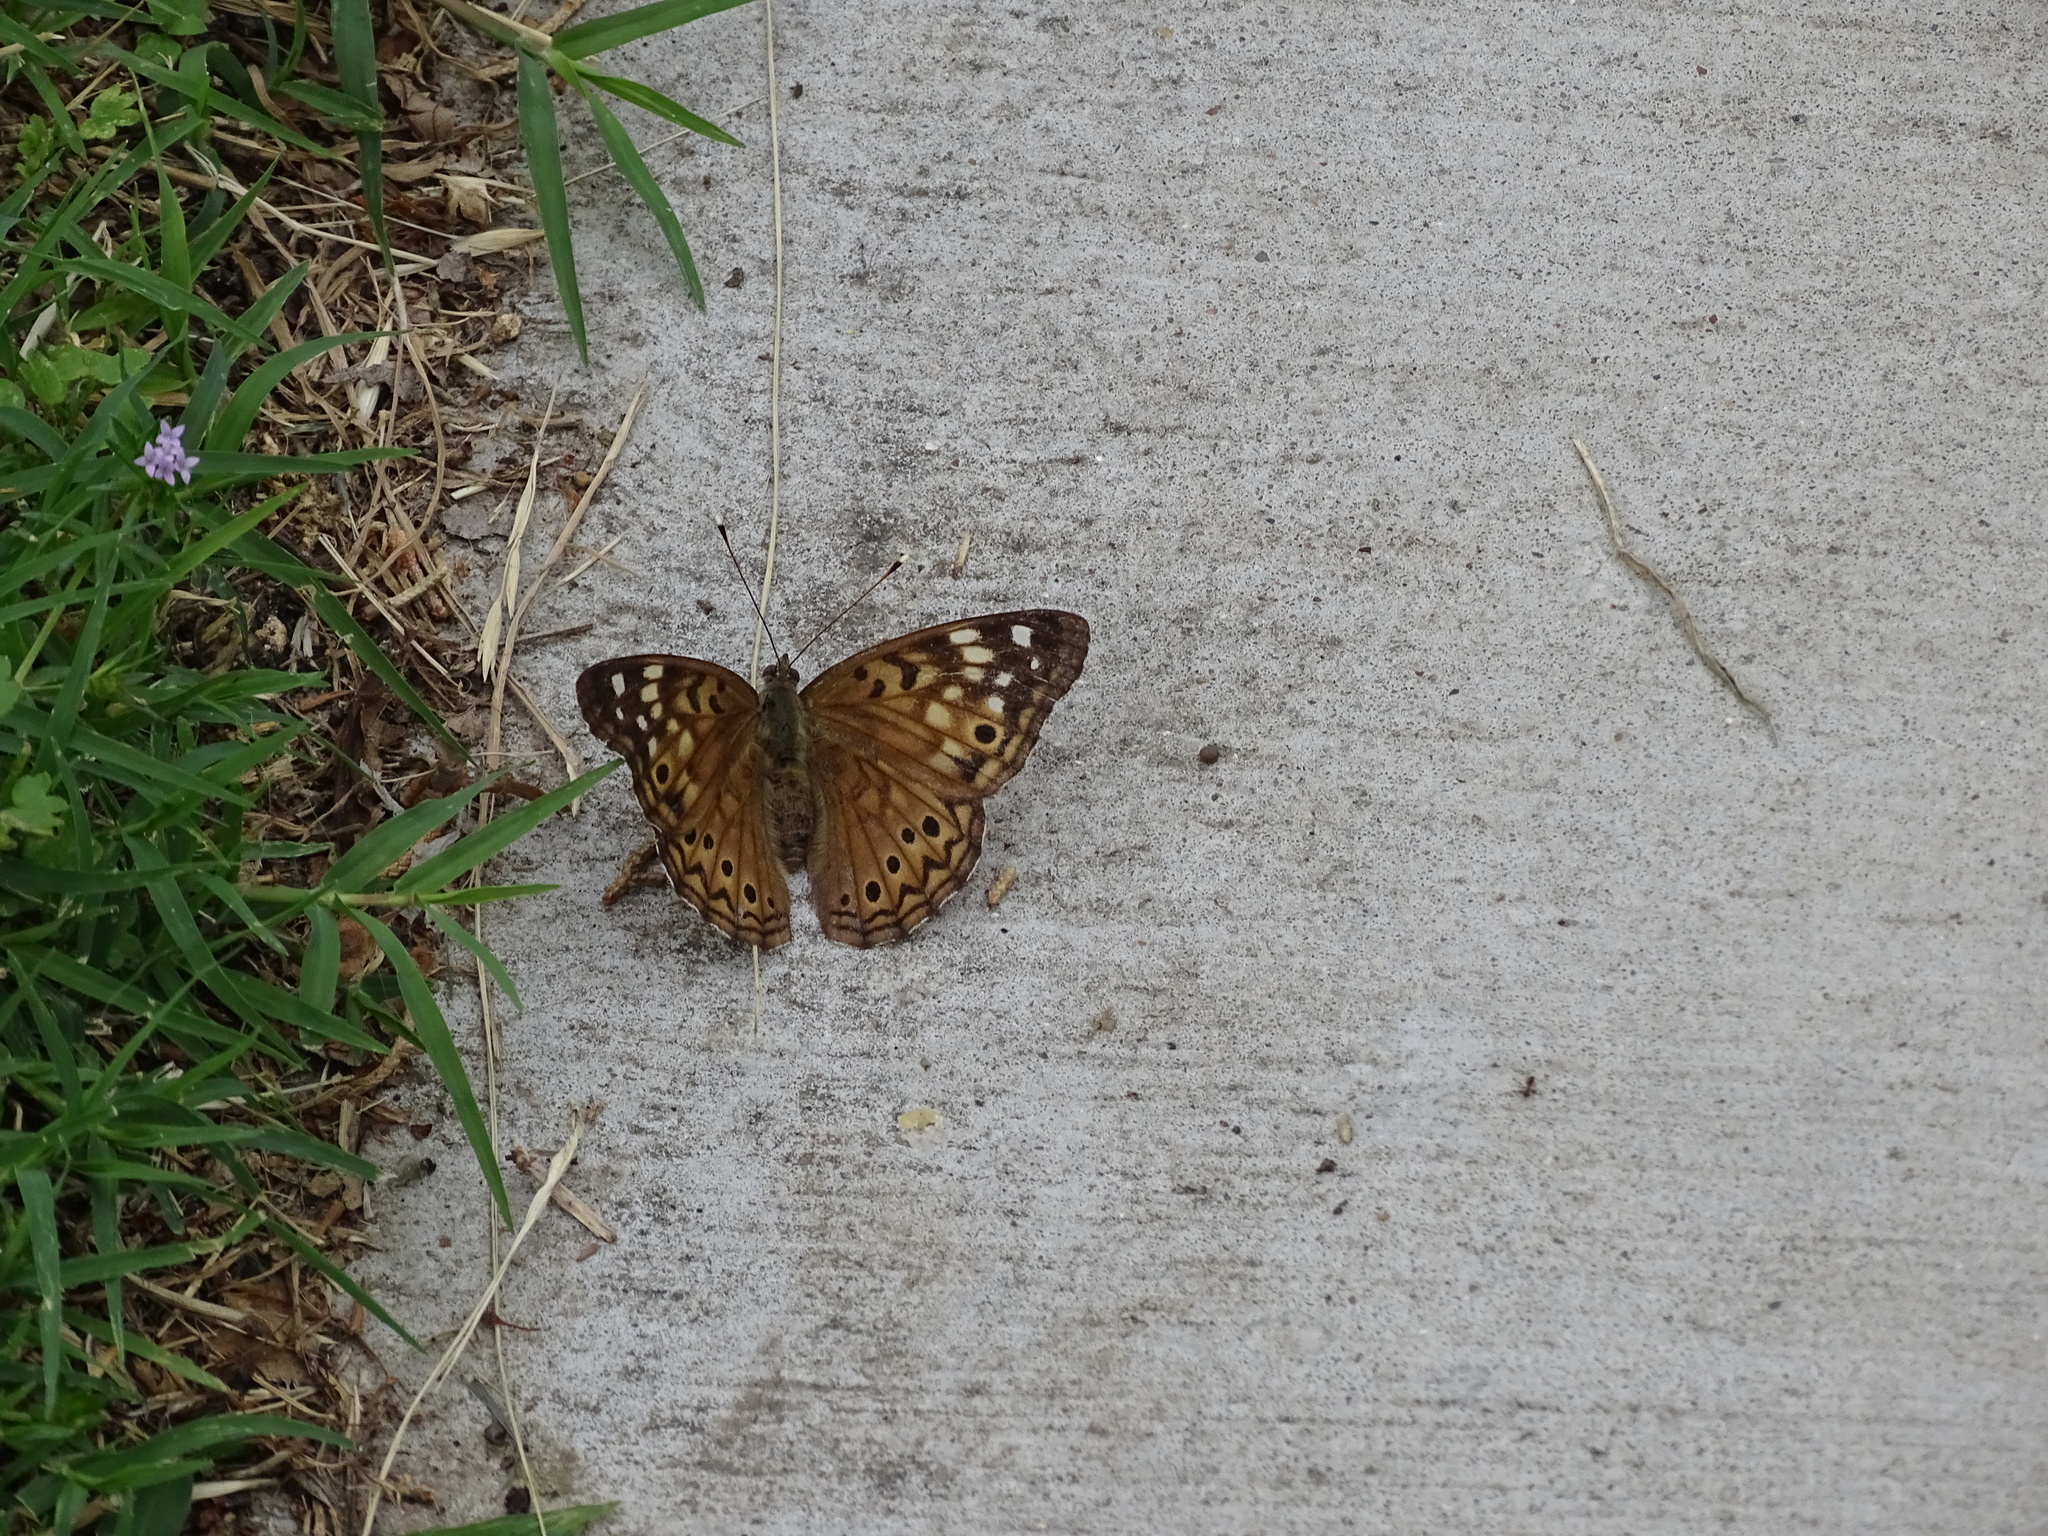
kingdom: Animalia
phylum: Arthropoda
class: Insecta
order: Lepidoptera
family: Nymphalidae
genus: Asterocampa
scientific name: Asterocampa celtis
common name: Hackberry emperor
